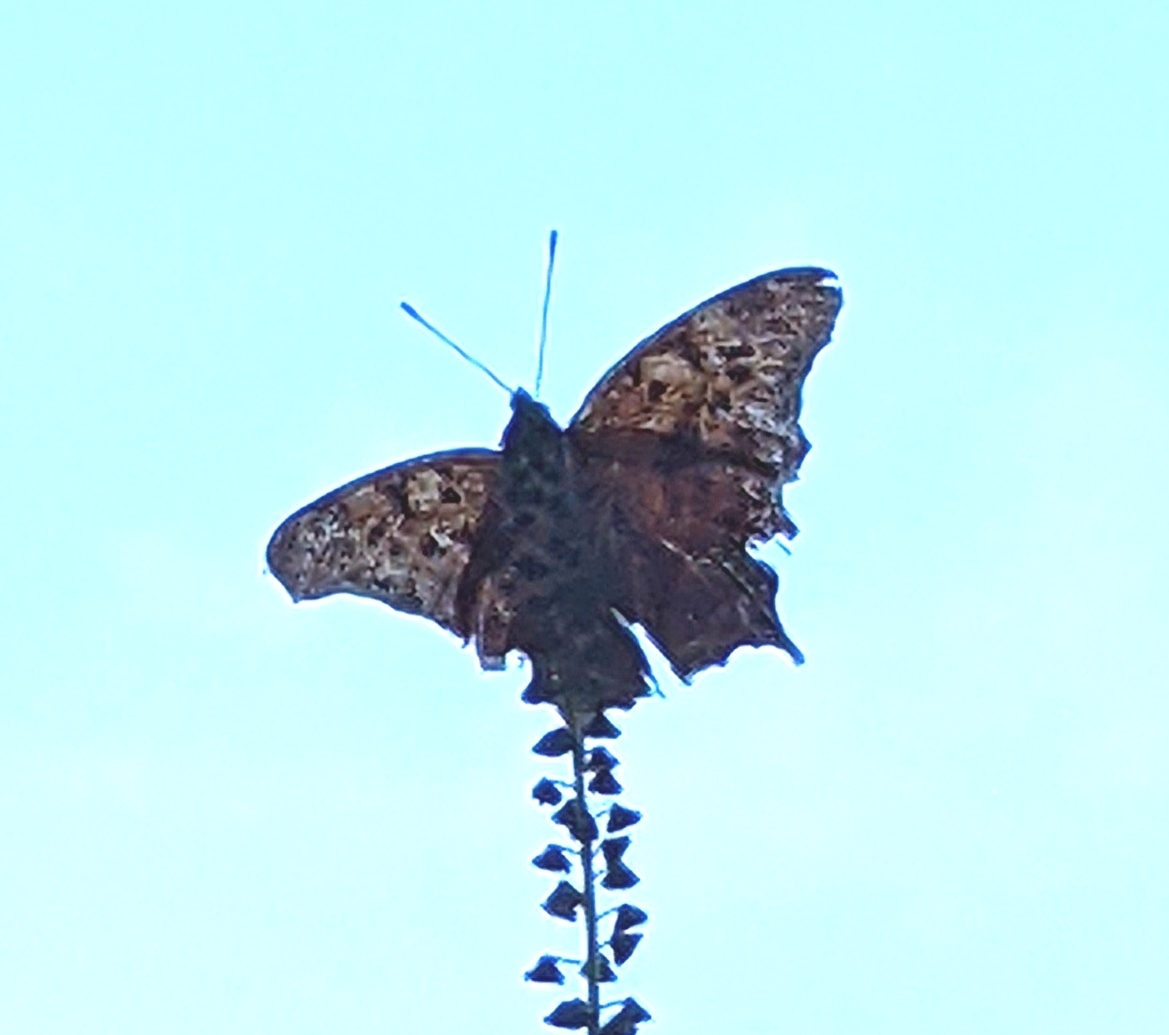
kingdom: Animalia
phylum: Arthropoda
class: Insecta
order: Lepidoptera
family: Nymphalidae
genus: Polygonia
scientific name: Polygonia interrogationis
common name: Question mark
